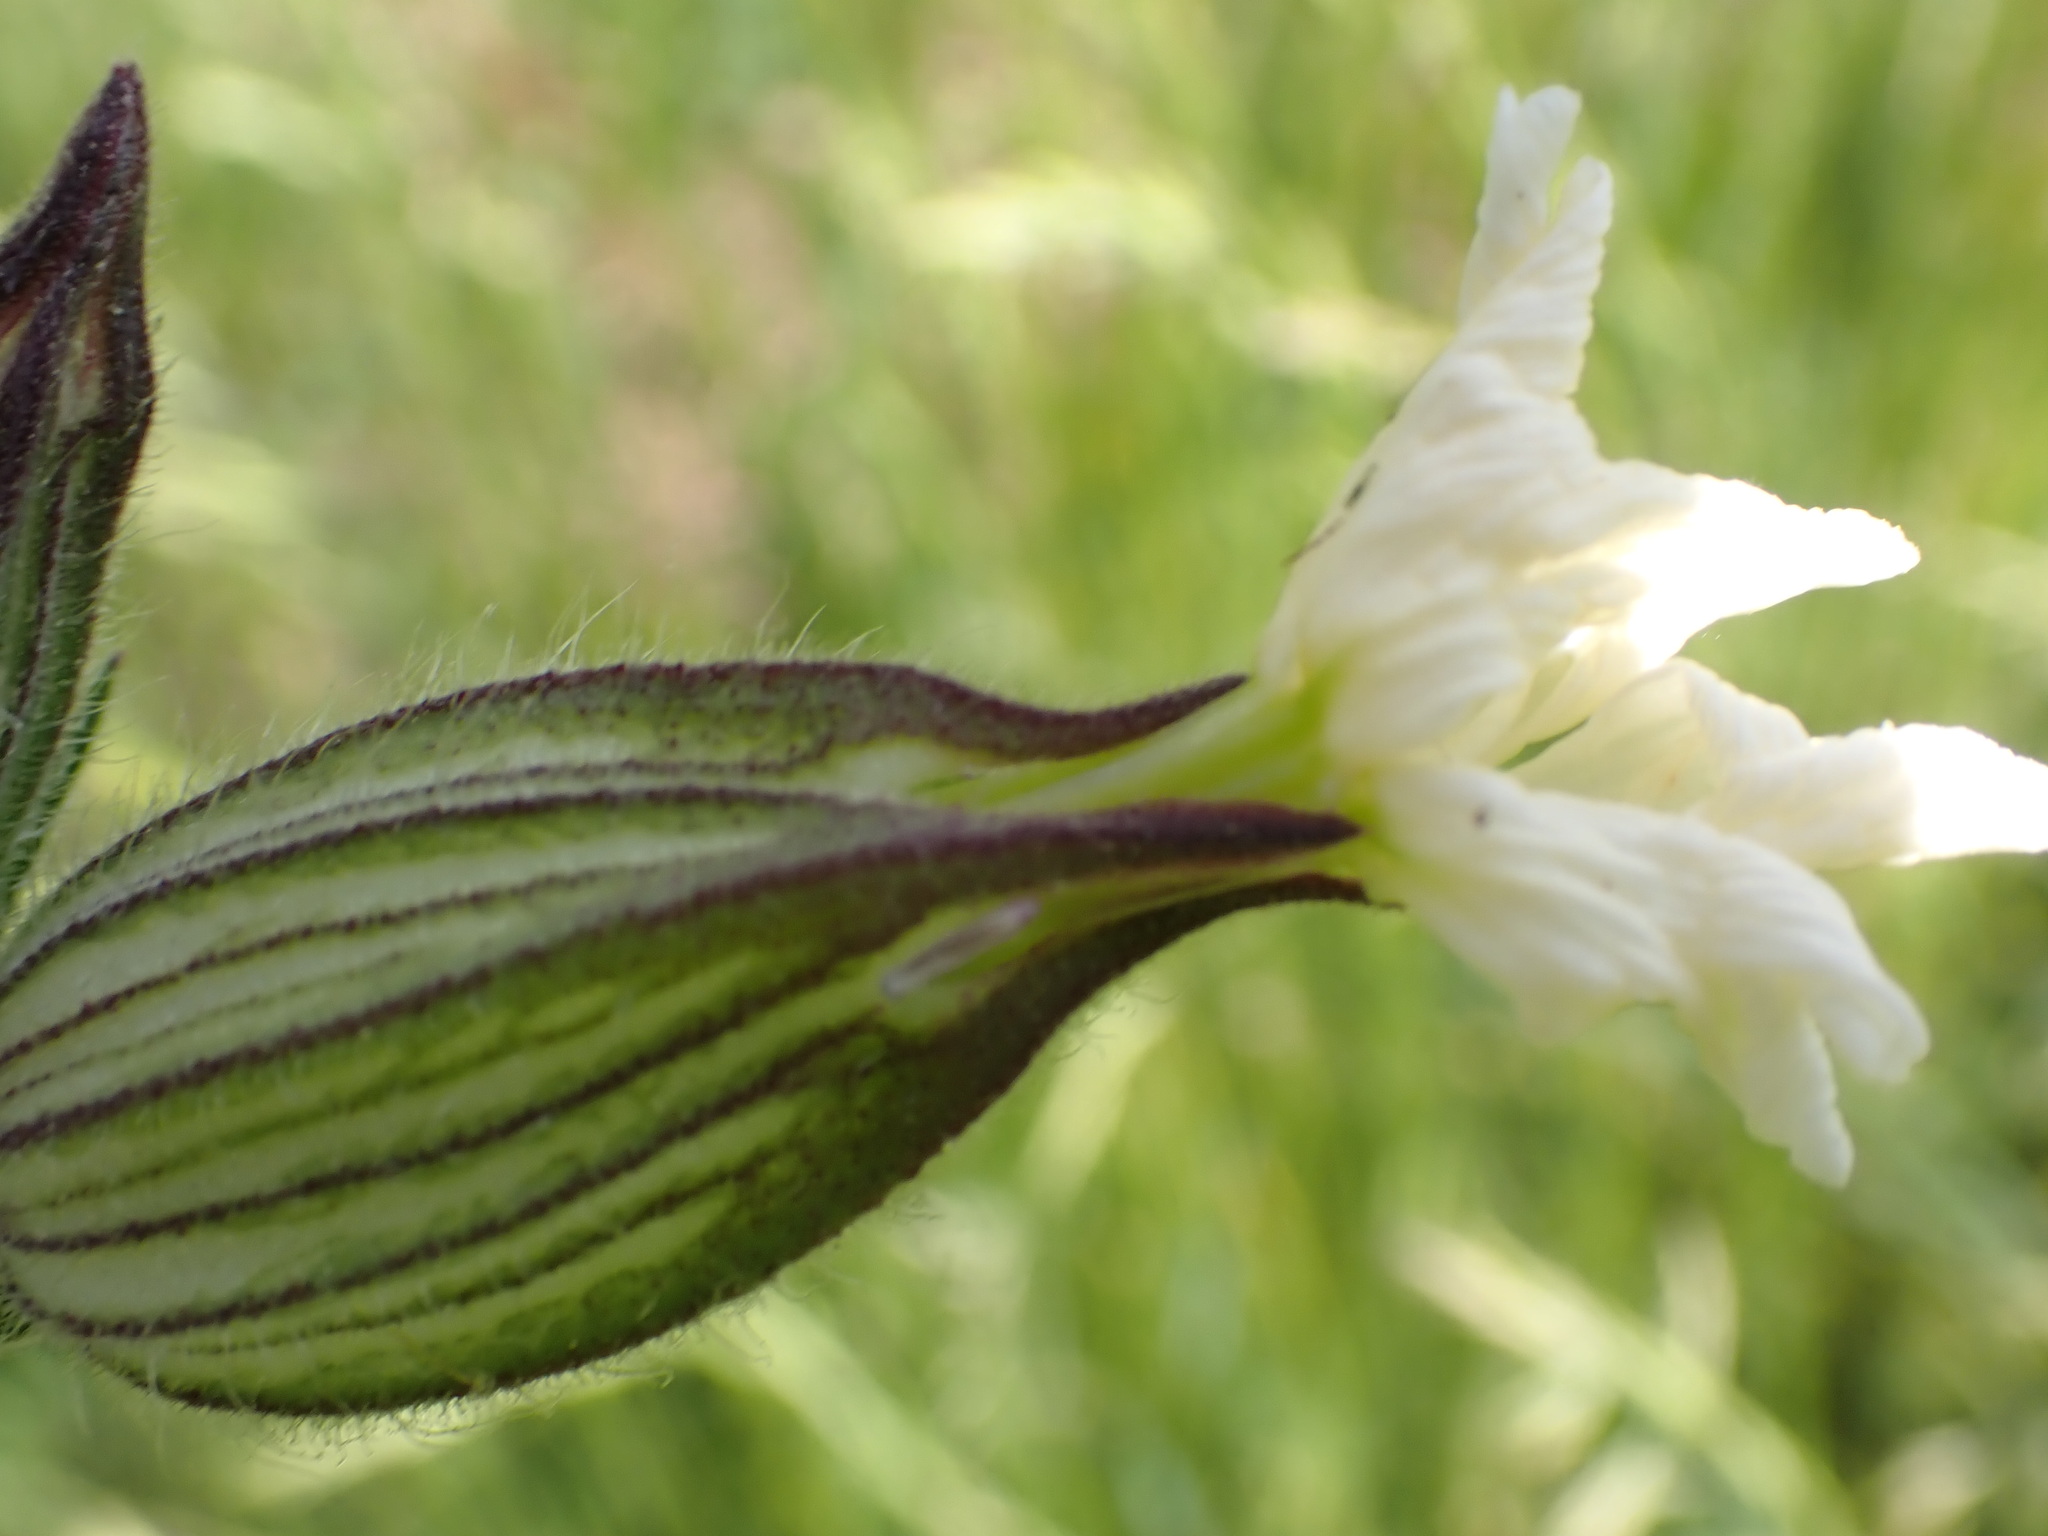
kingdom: Plantae
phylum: Tracheophyta
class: Magnoliopsida
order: Caryophyllales
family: Caryophyllaceae
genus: Silene
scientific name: Silene latifolia
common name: White campion
